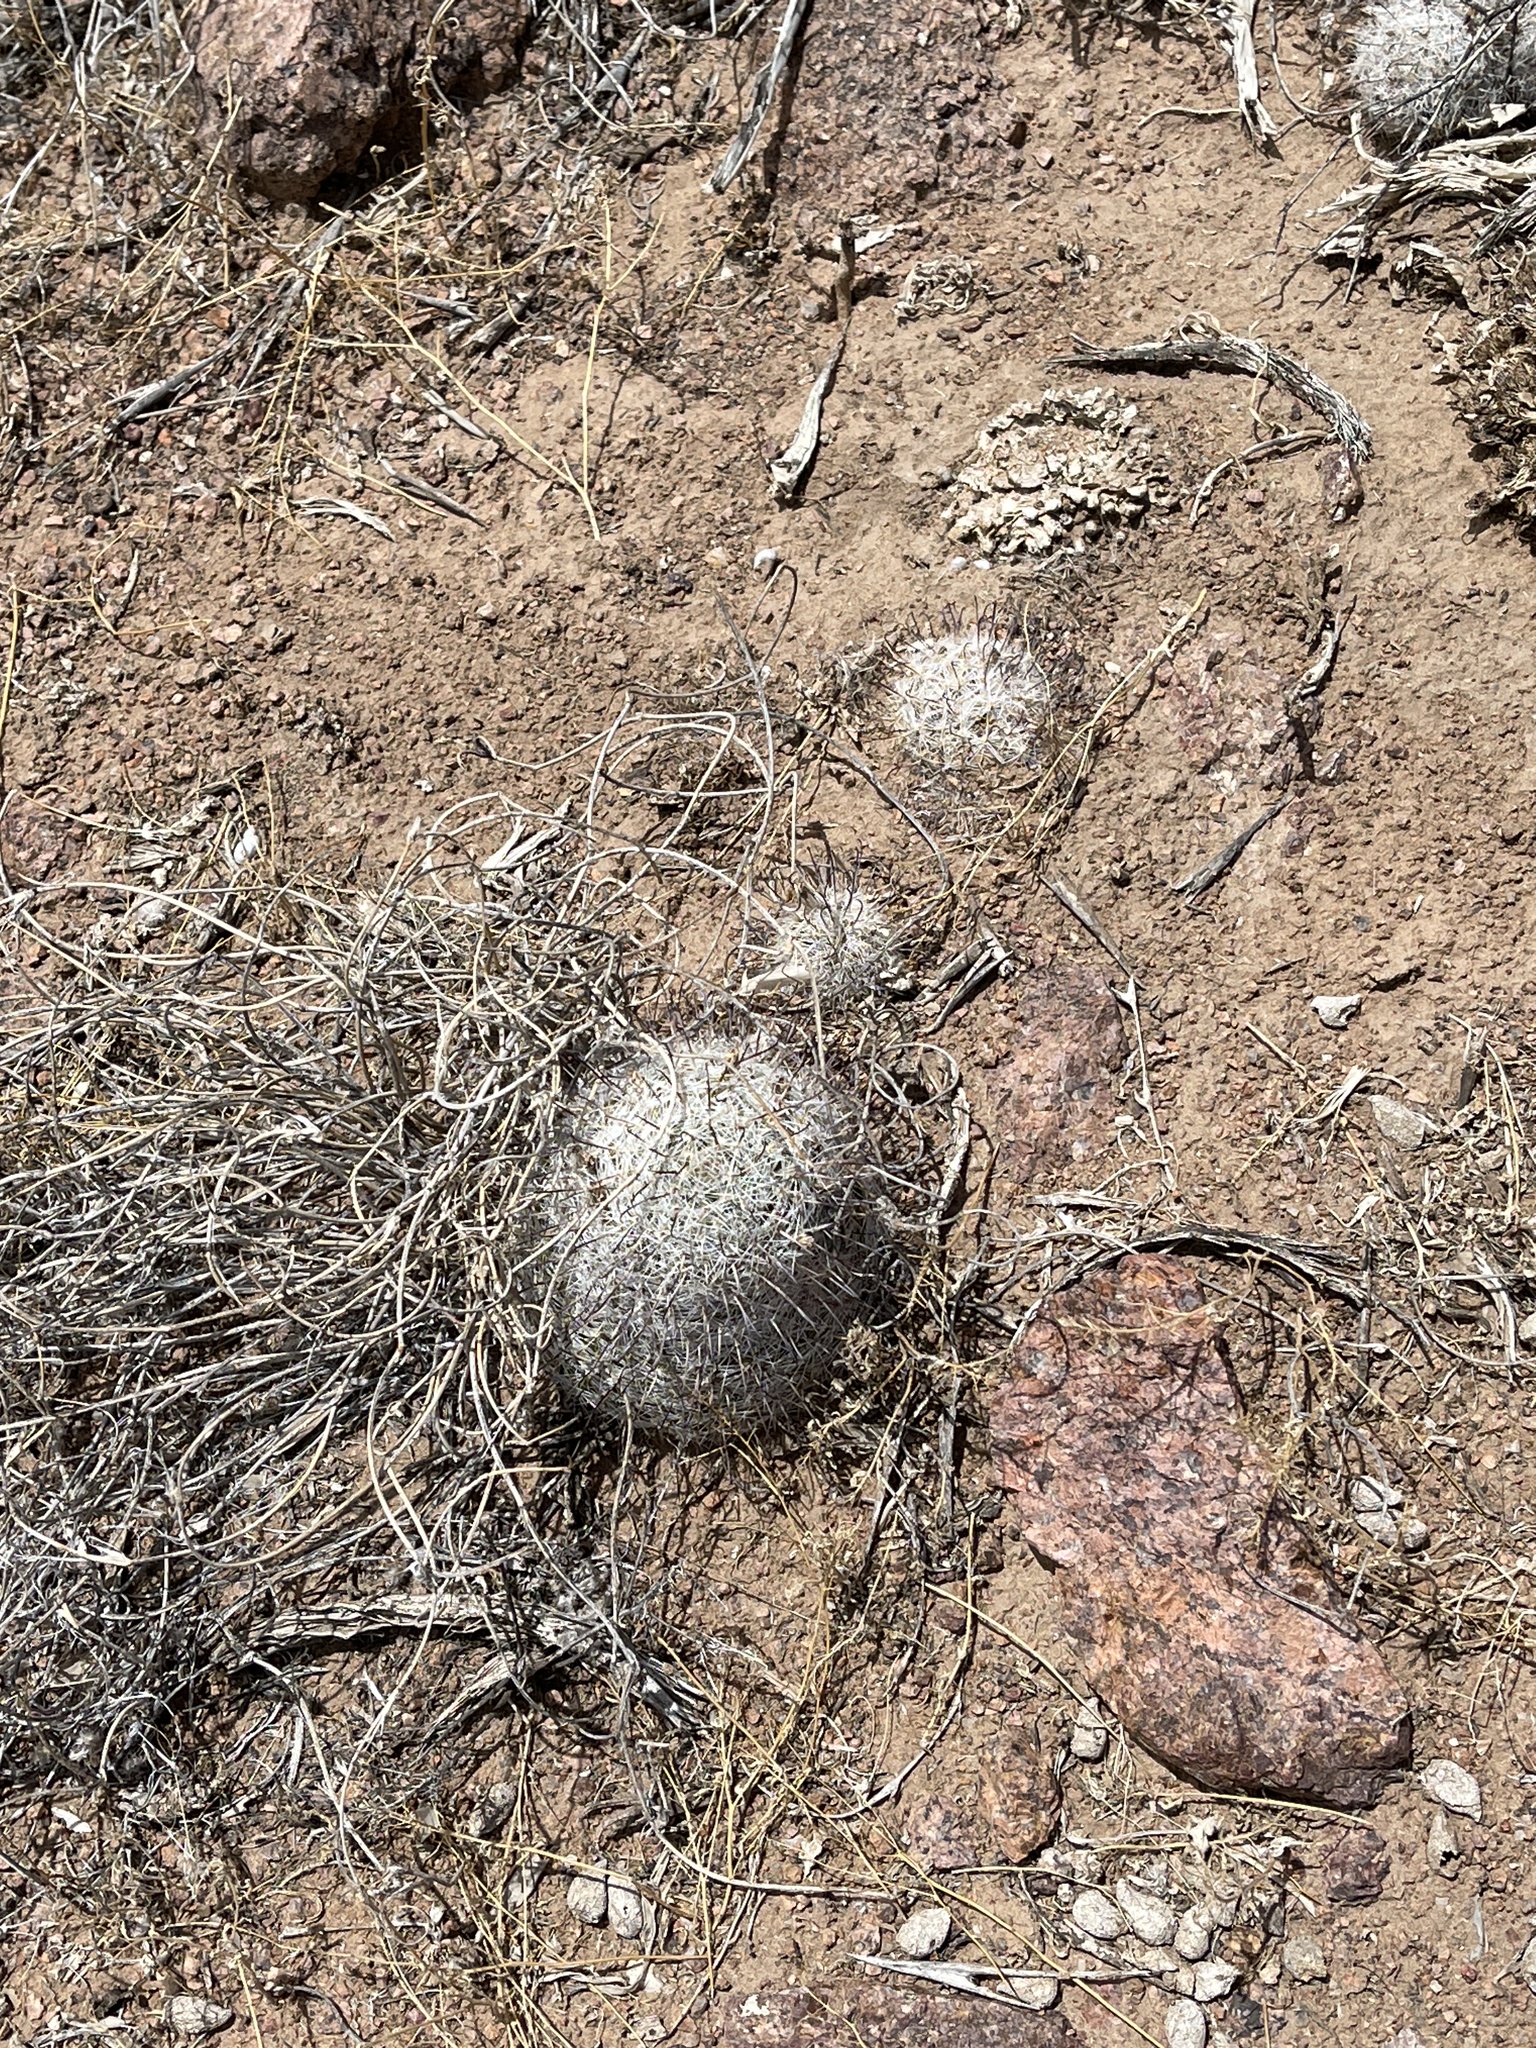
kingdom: Plantae
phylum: Tracheophyta
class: Magnoliopsida
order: Caryophyllales
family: Cactaceae
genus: Cochemiea
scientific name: Cochemiea grahamii
